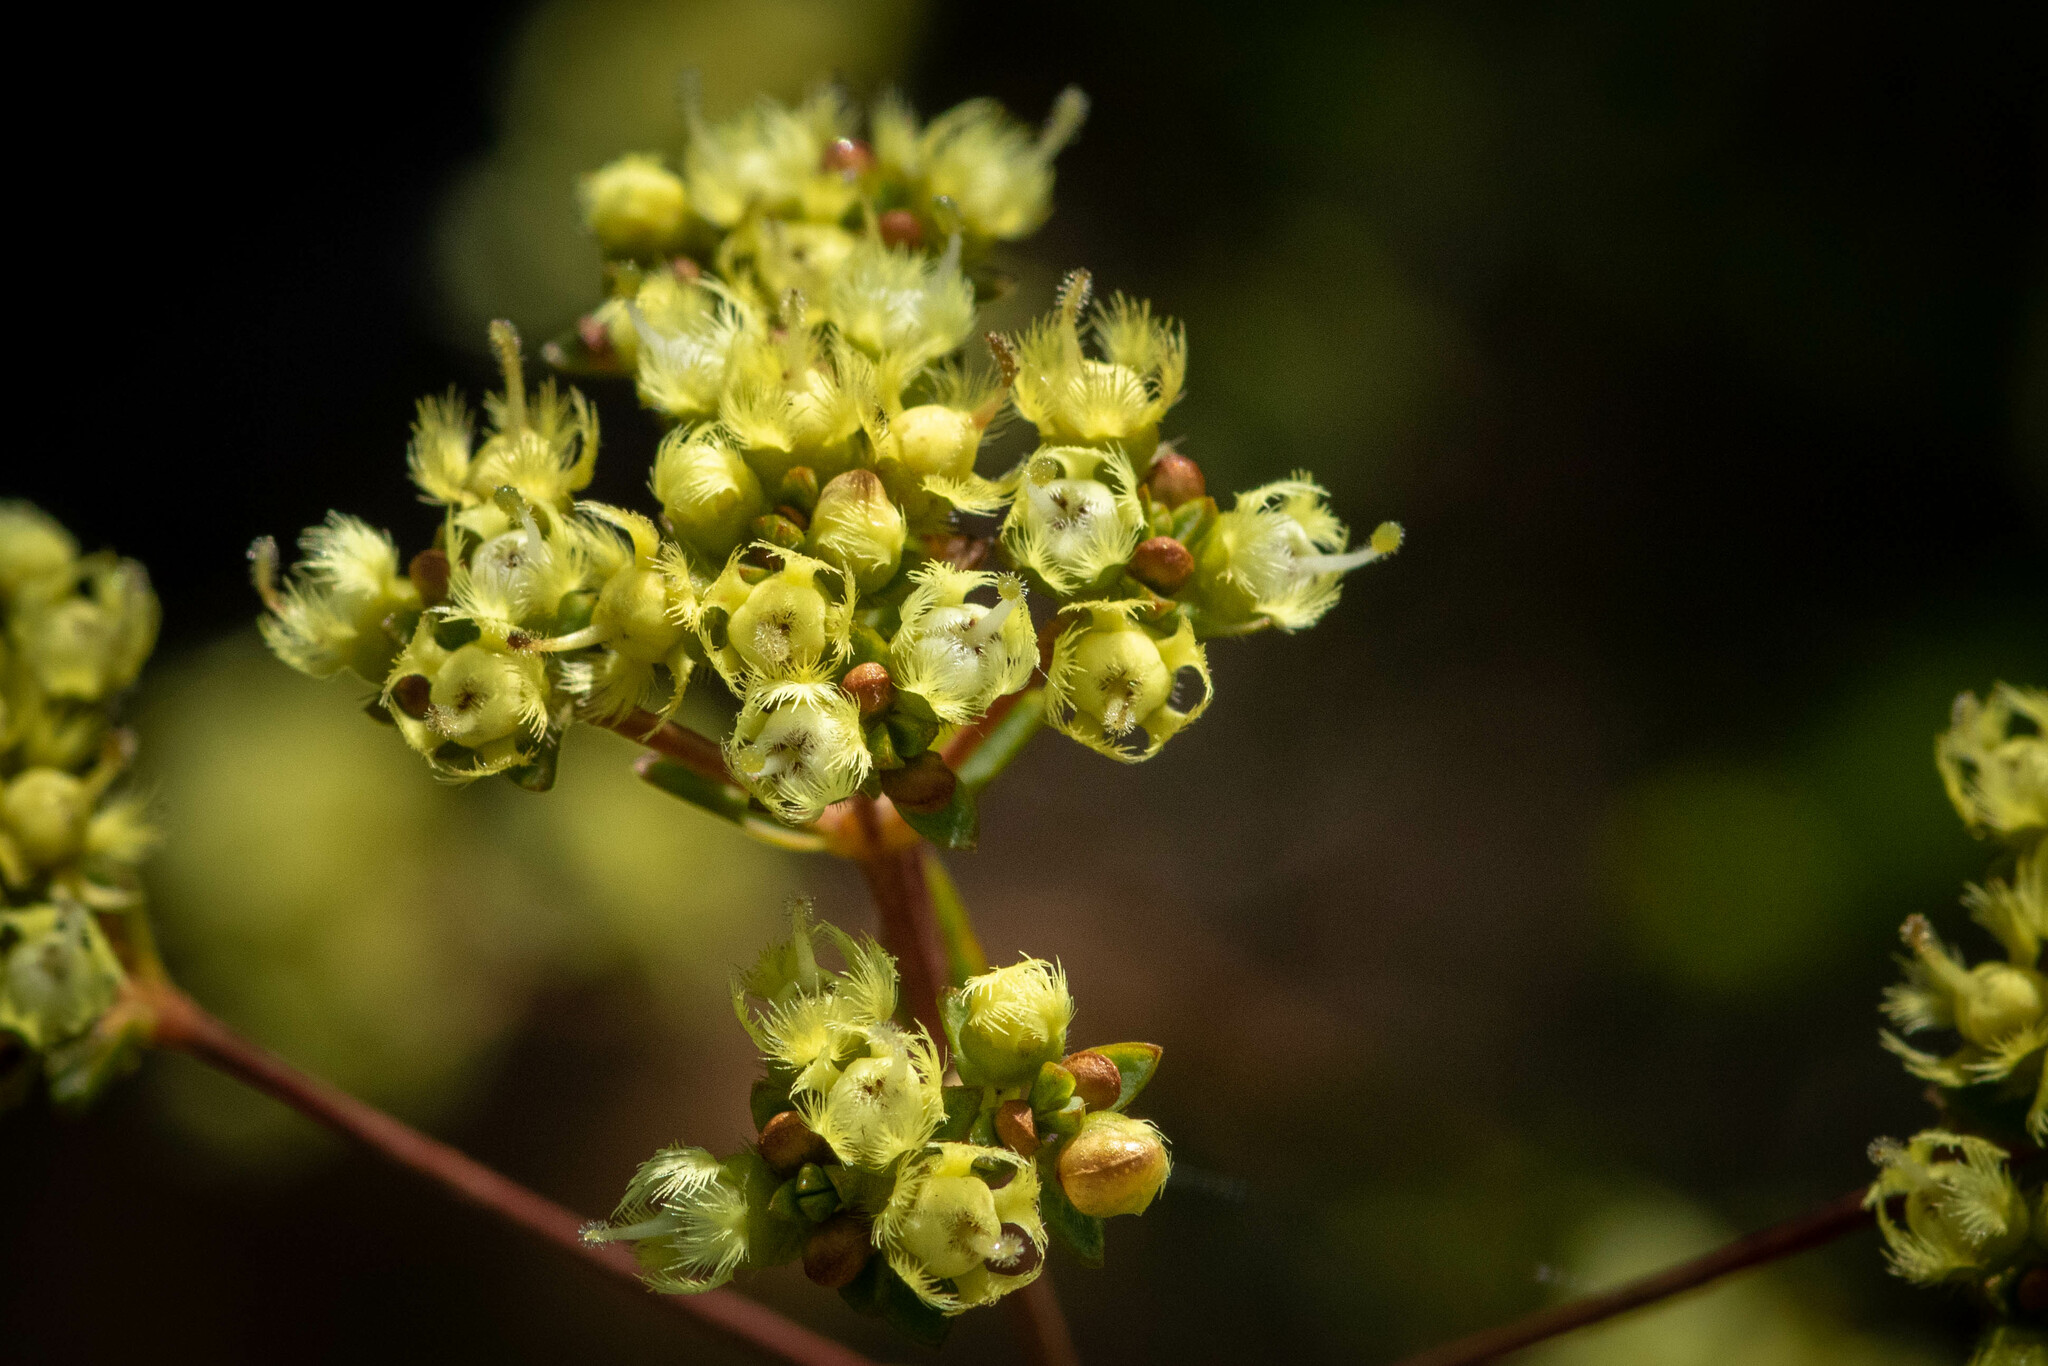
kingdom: Plantae
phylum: Tracheophyta
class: Magnoliopsida
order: Myrtales
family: Myrtaceae
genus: Verticordia
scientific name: Verticordia densiflora
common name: Compact feather-flower
